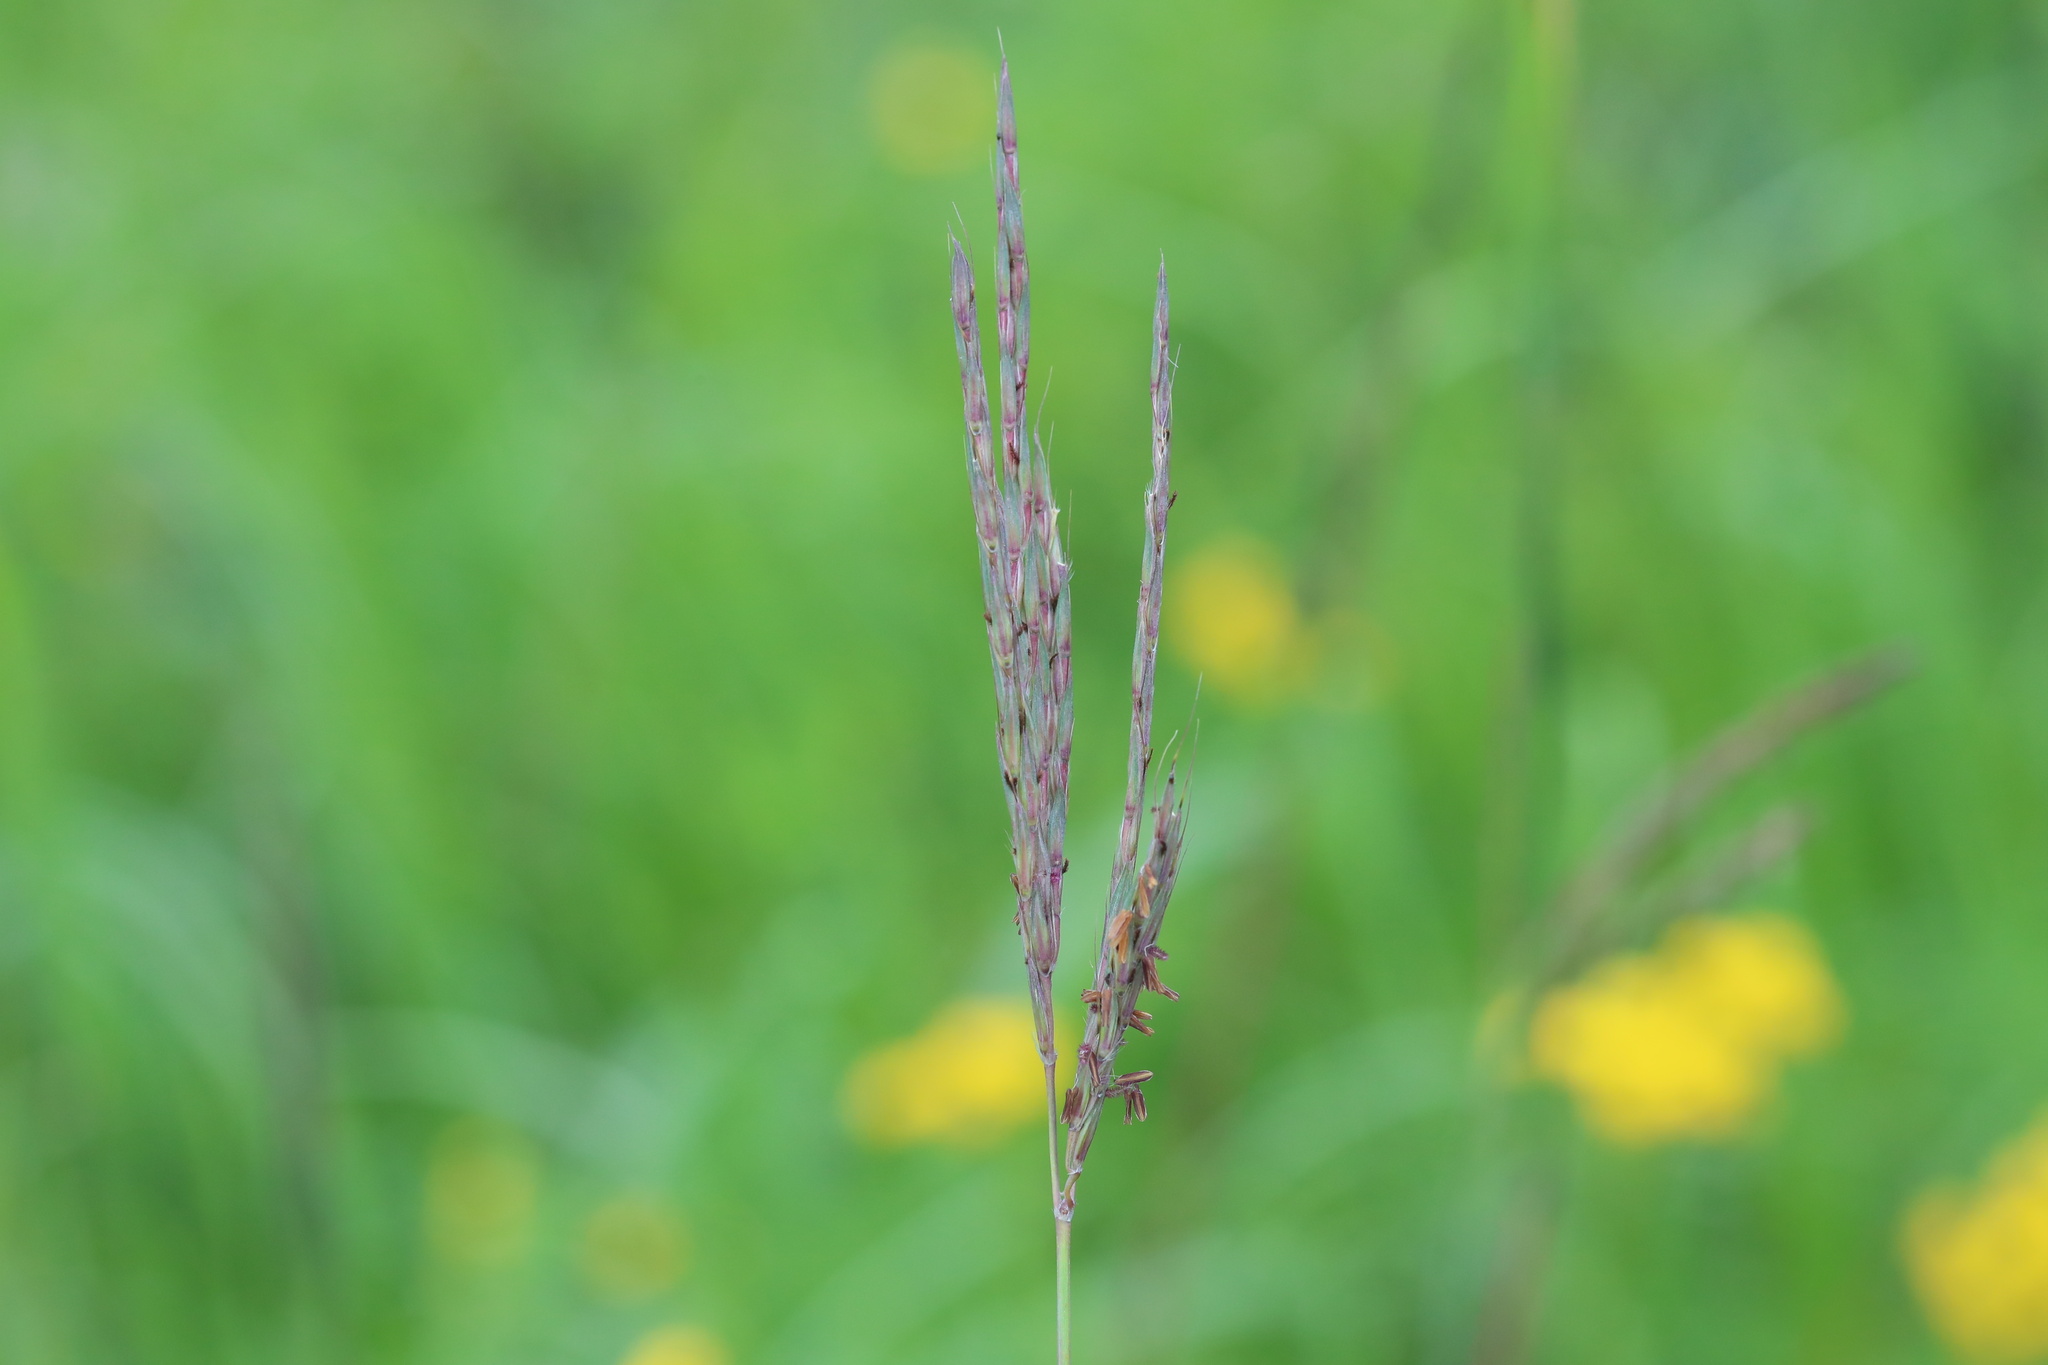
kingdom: Plantae
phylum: Tracheophyta
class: Liliopsida
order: Poales
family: Poaceae
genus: Andropogon
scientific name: Andropogon gerardi
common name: Big bluestem
